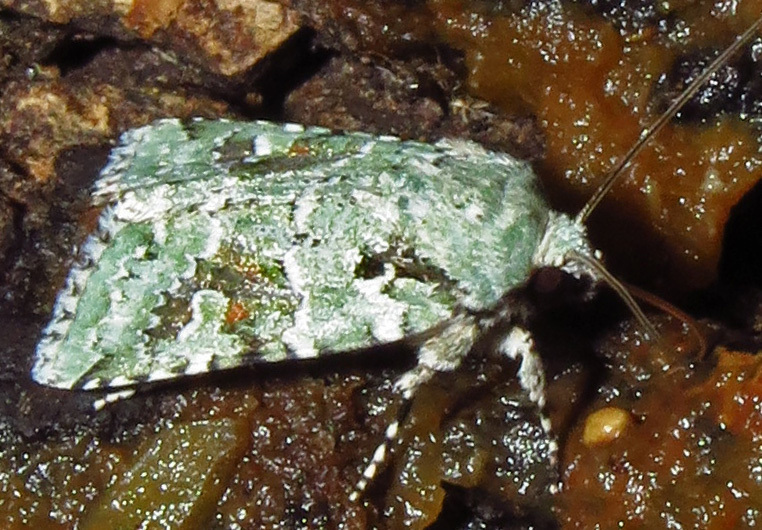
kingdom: Animalia
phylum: Arthropoda
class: Insecta
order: Lepidoptera
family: Noctuidae
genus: Lacinipolia
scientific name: Lacinipolia laudabilis
